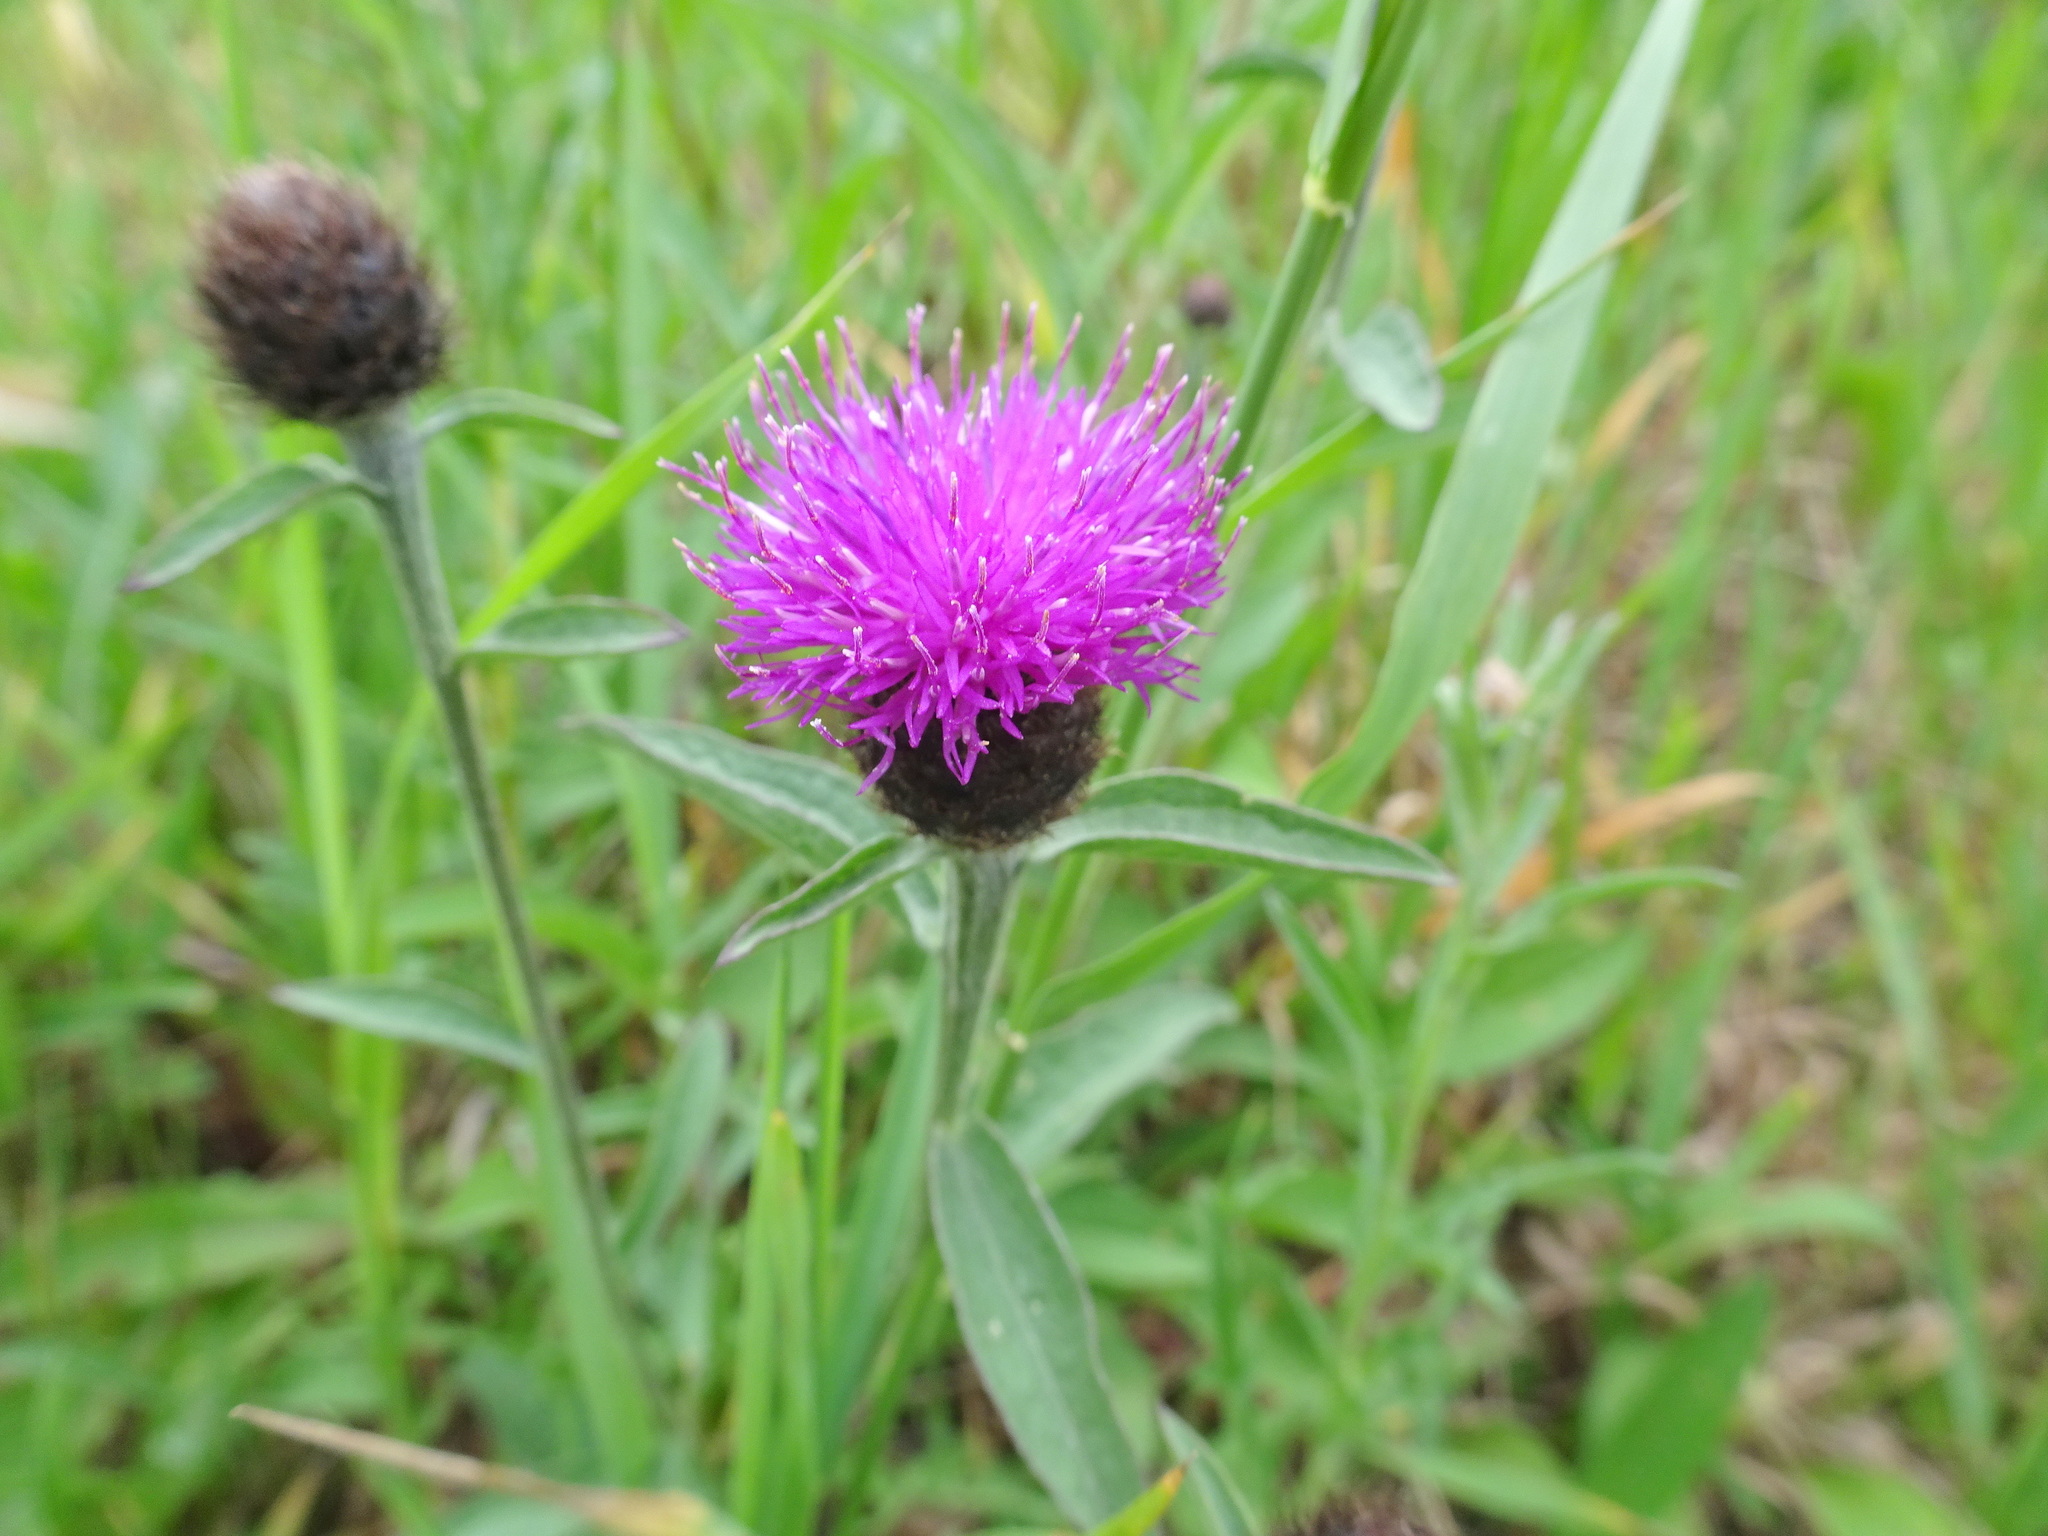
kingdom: Plantae
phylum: Tracheophyta
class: Magnoliopsida
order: Asterales
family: Asteraceae
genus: Centaurea
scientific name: Centaurea nigra
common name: Lesser knapweed
